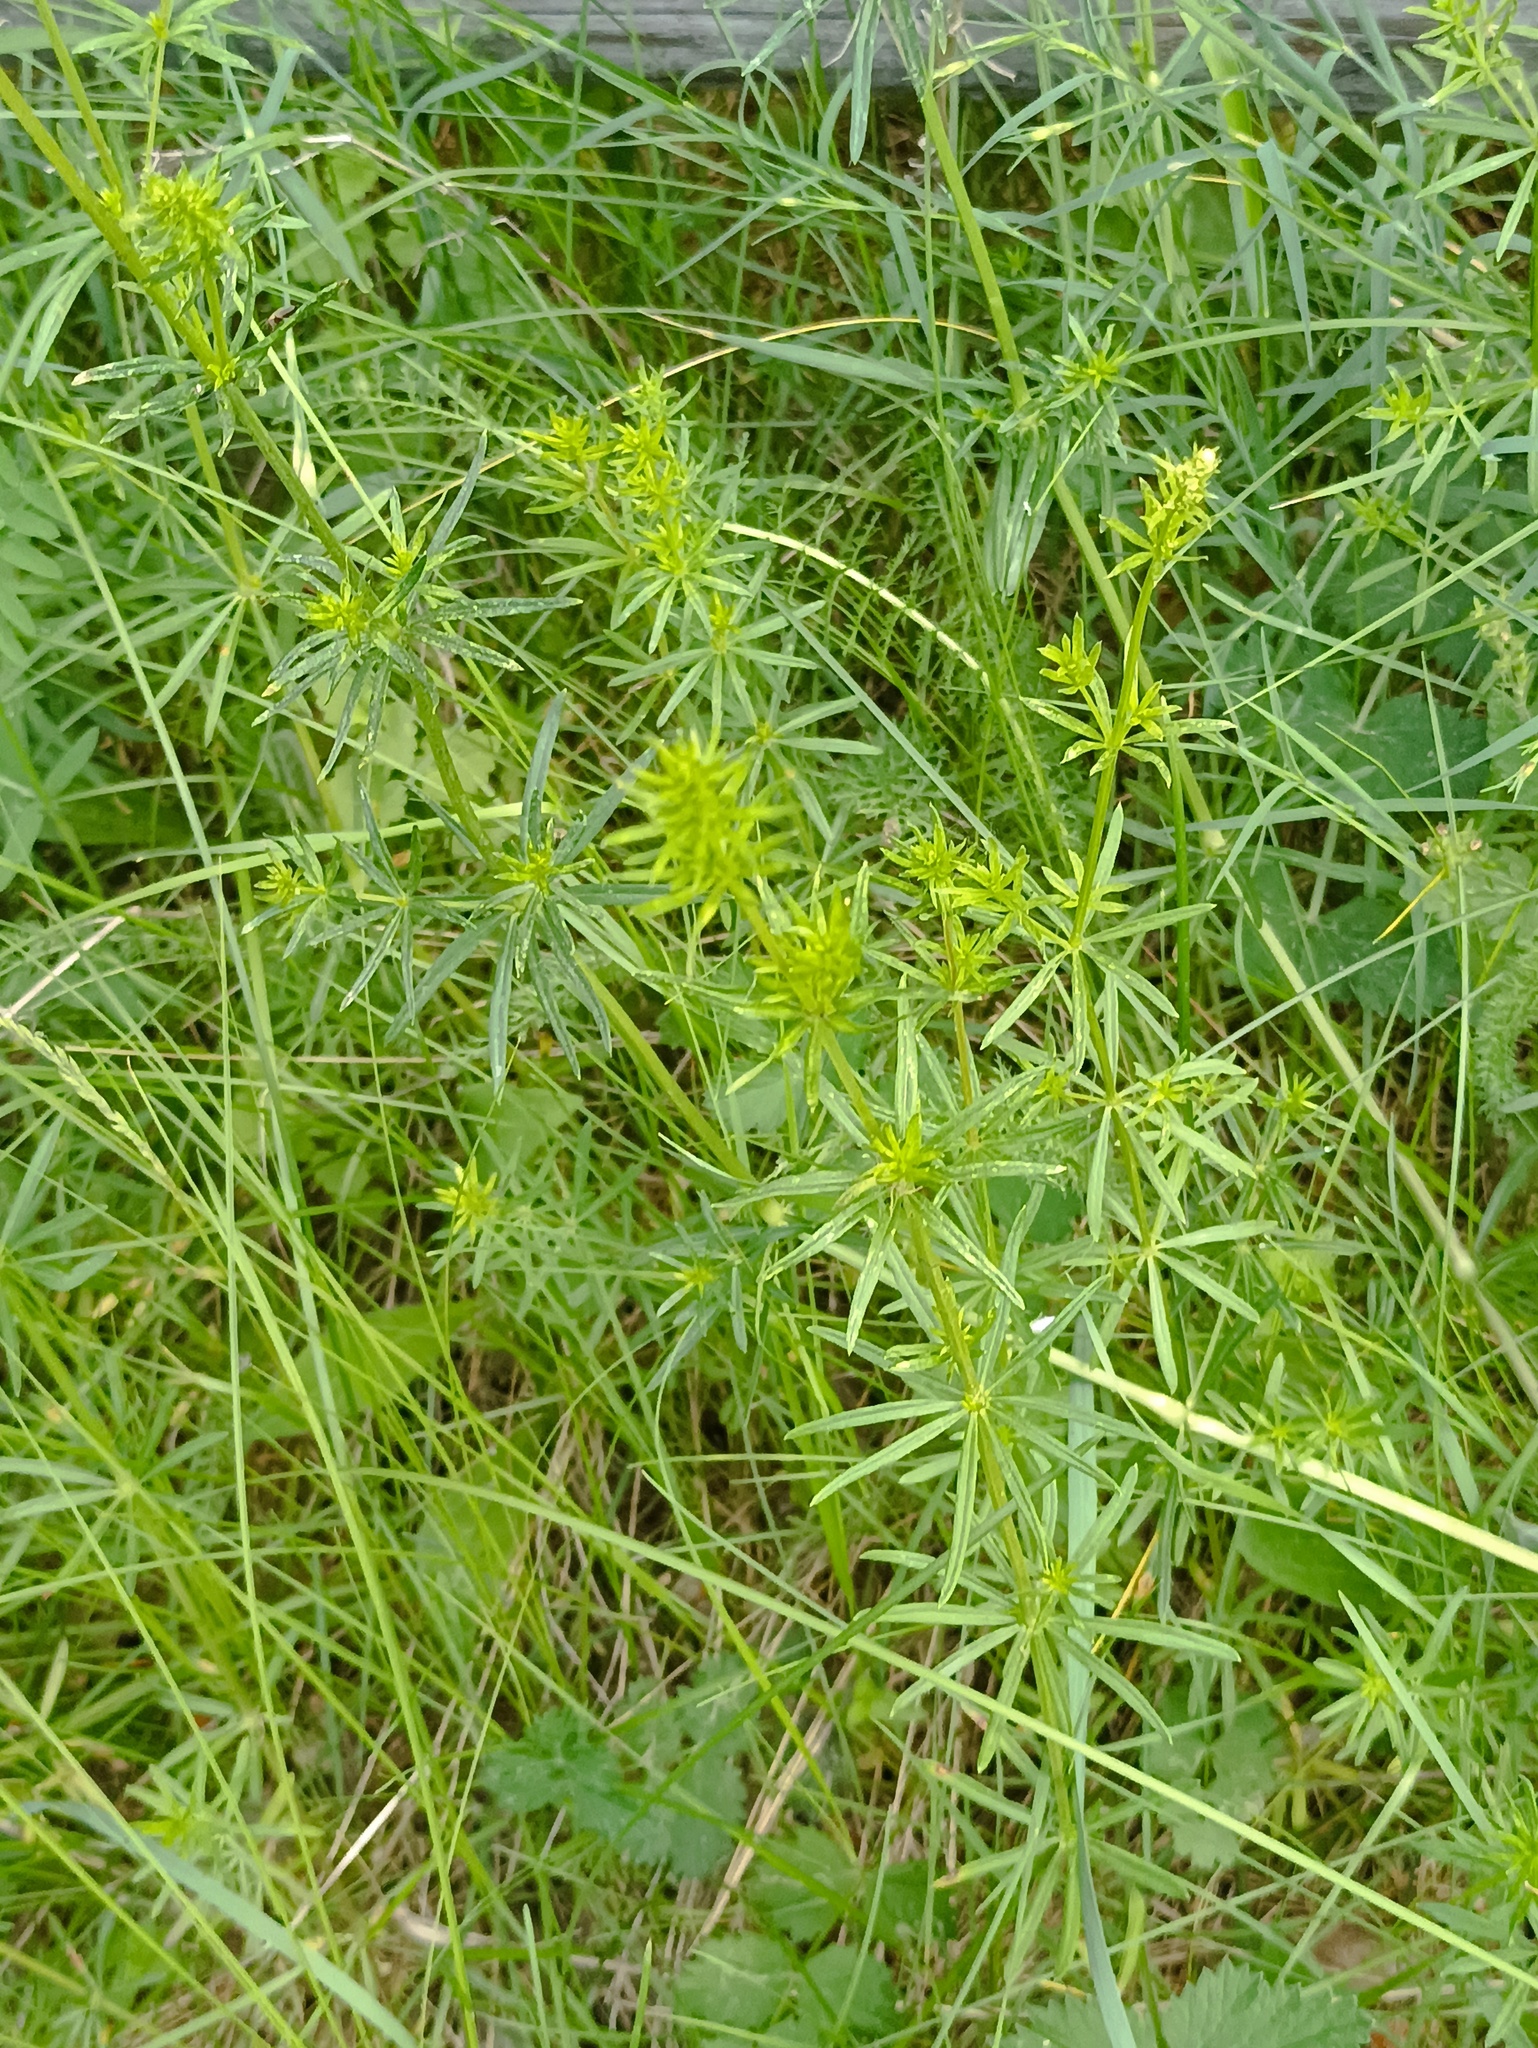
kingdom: Plantae
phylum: Tracheophyta
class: Magnoliopsida
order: Gentianales
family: Rubiaceae
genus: Galium
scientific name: Galium mollugo
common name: Hedge bedstraw
